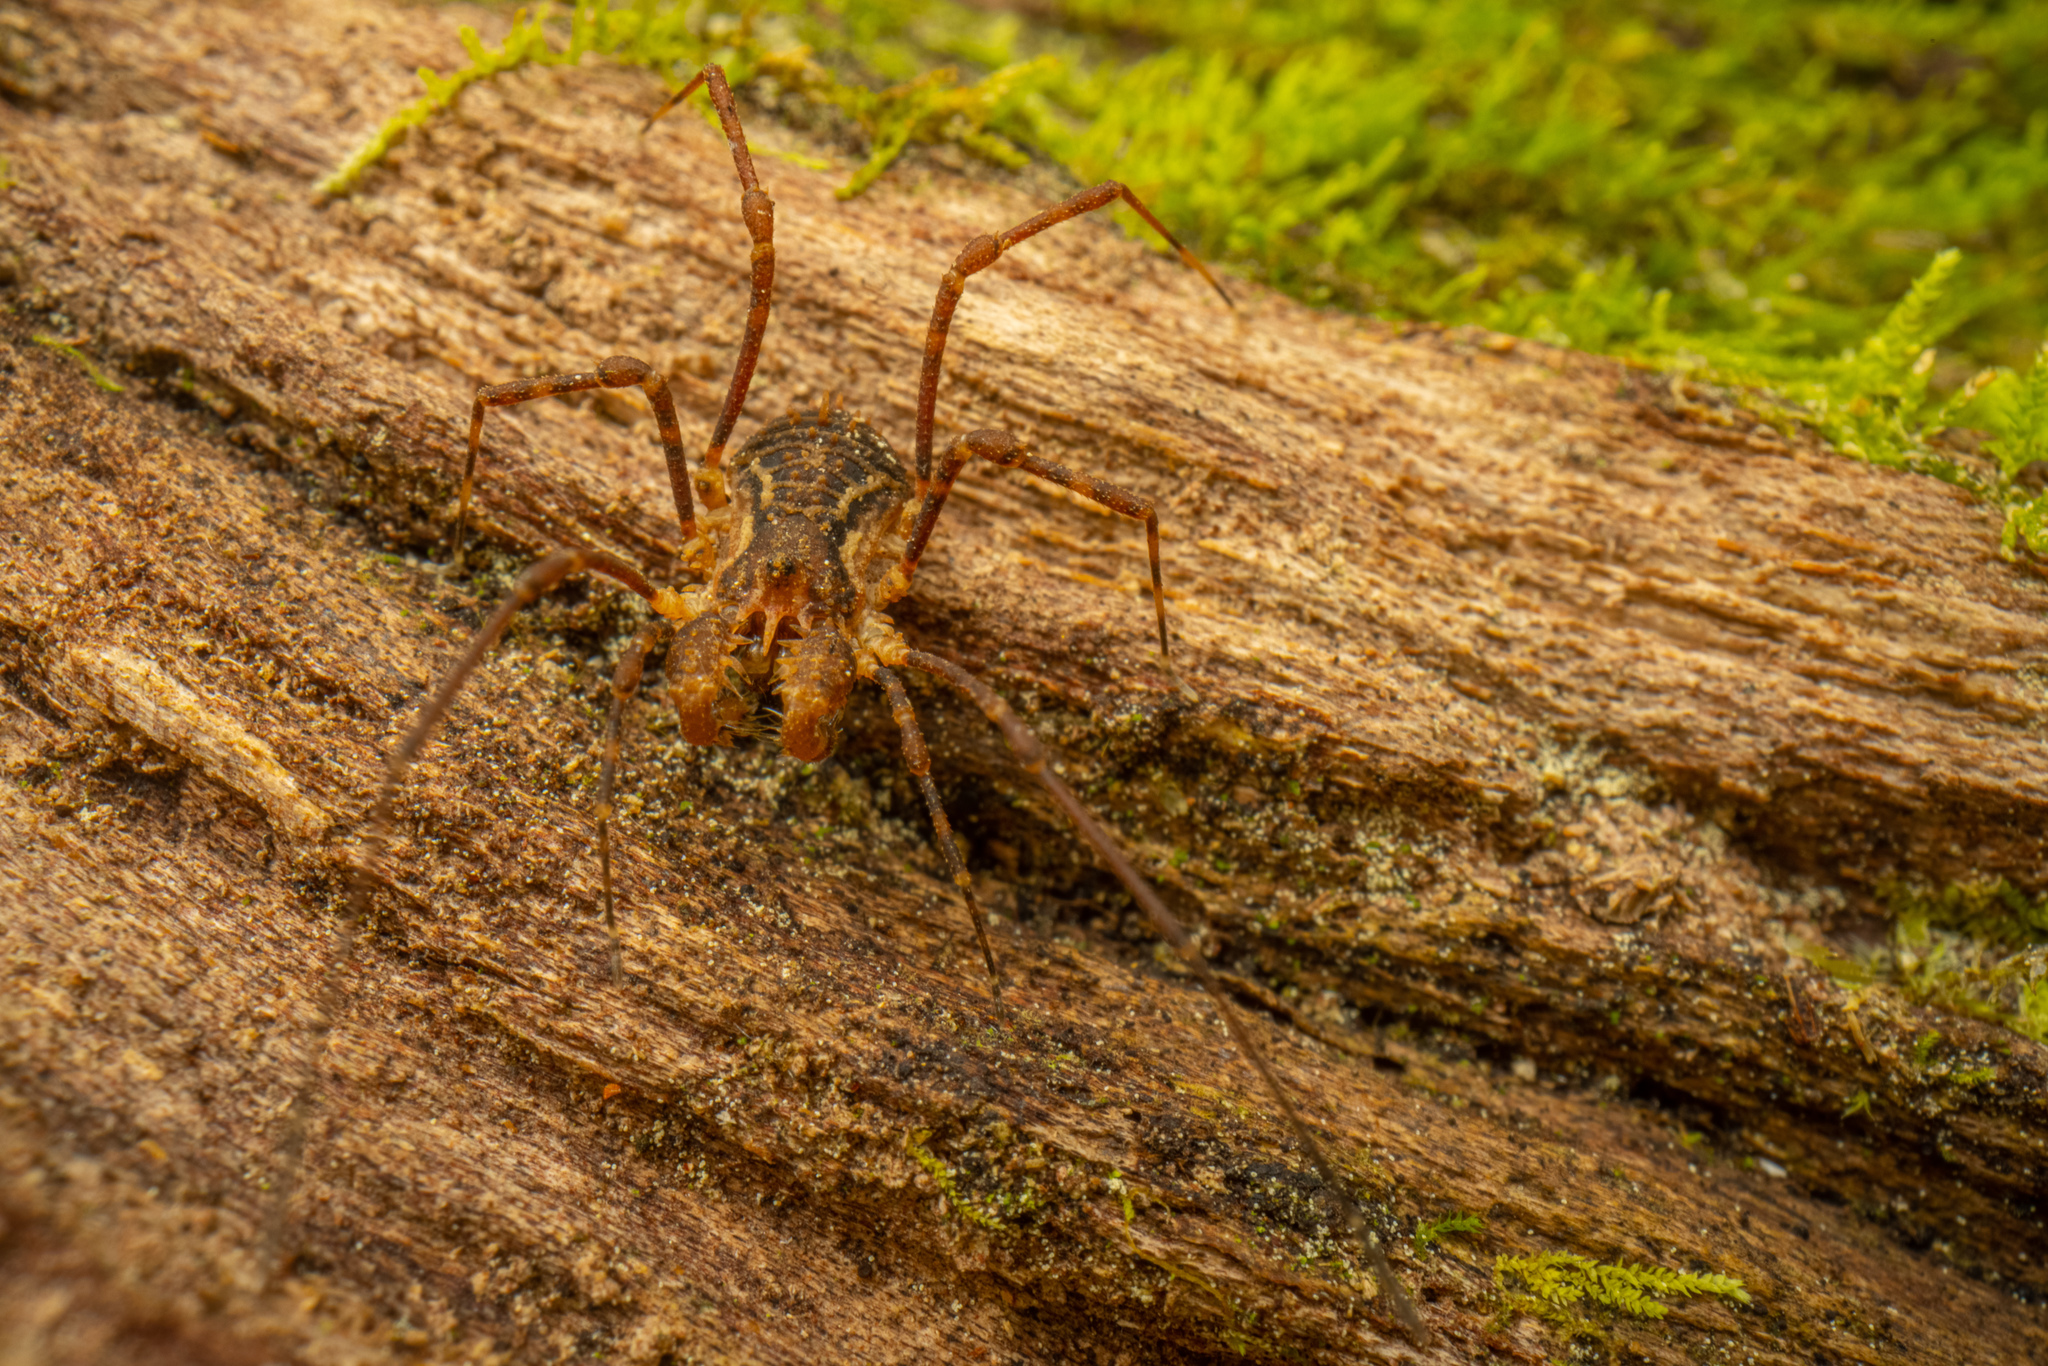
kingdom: Animalia
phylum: Arthropoda
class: Arachnida
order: Opiliones
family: Triaenonychidae
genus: Algidia
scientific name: Algidia chiltoni
